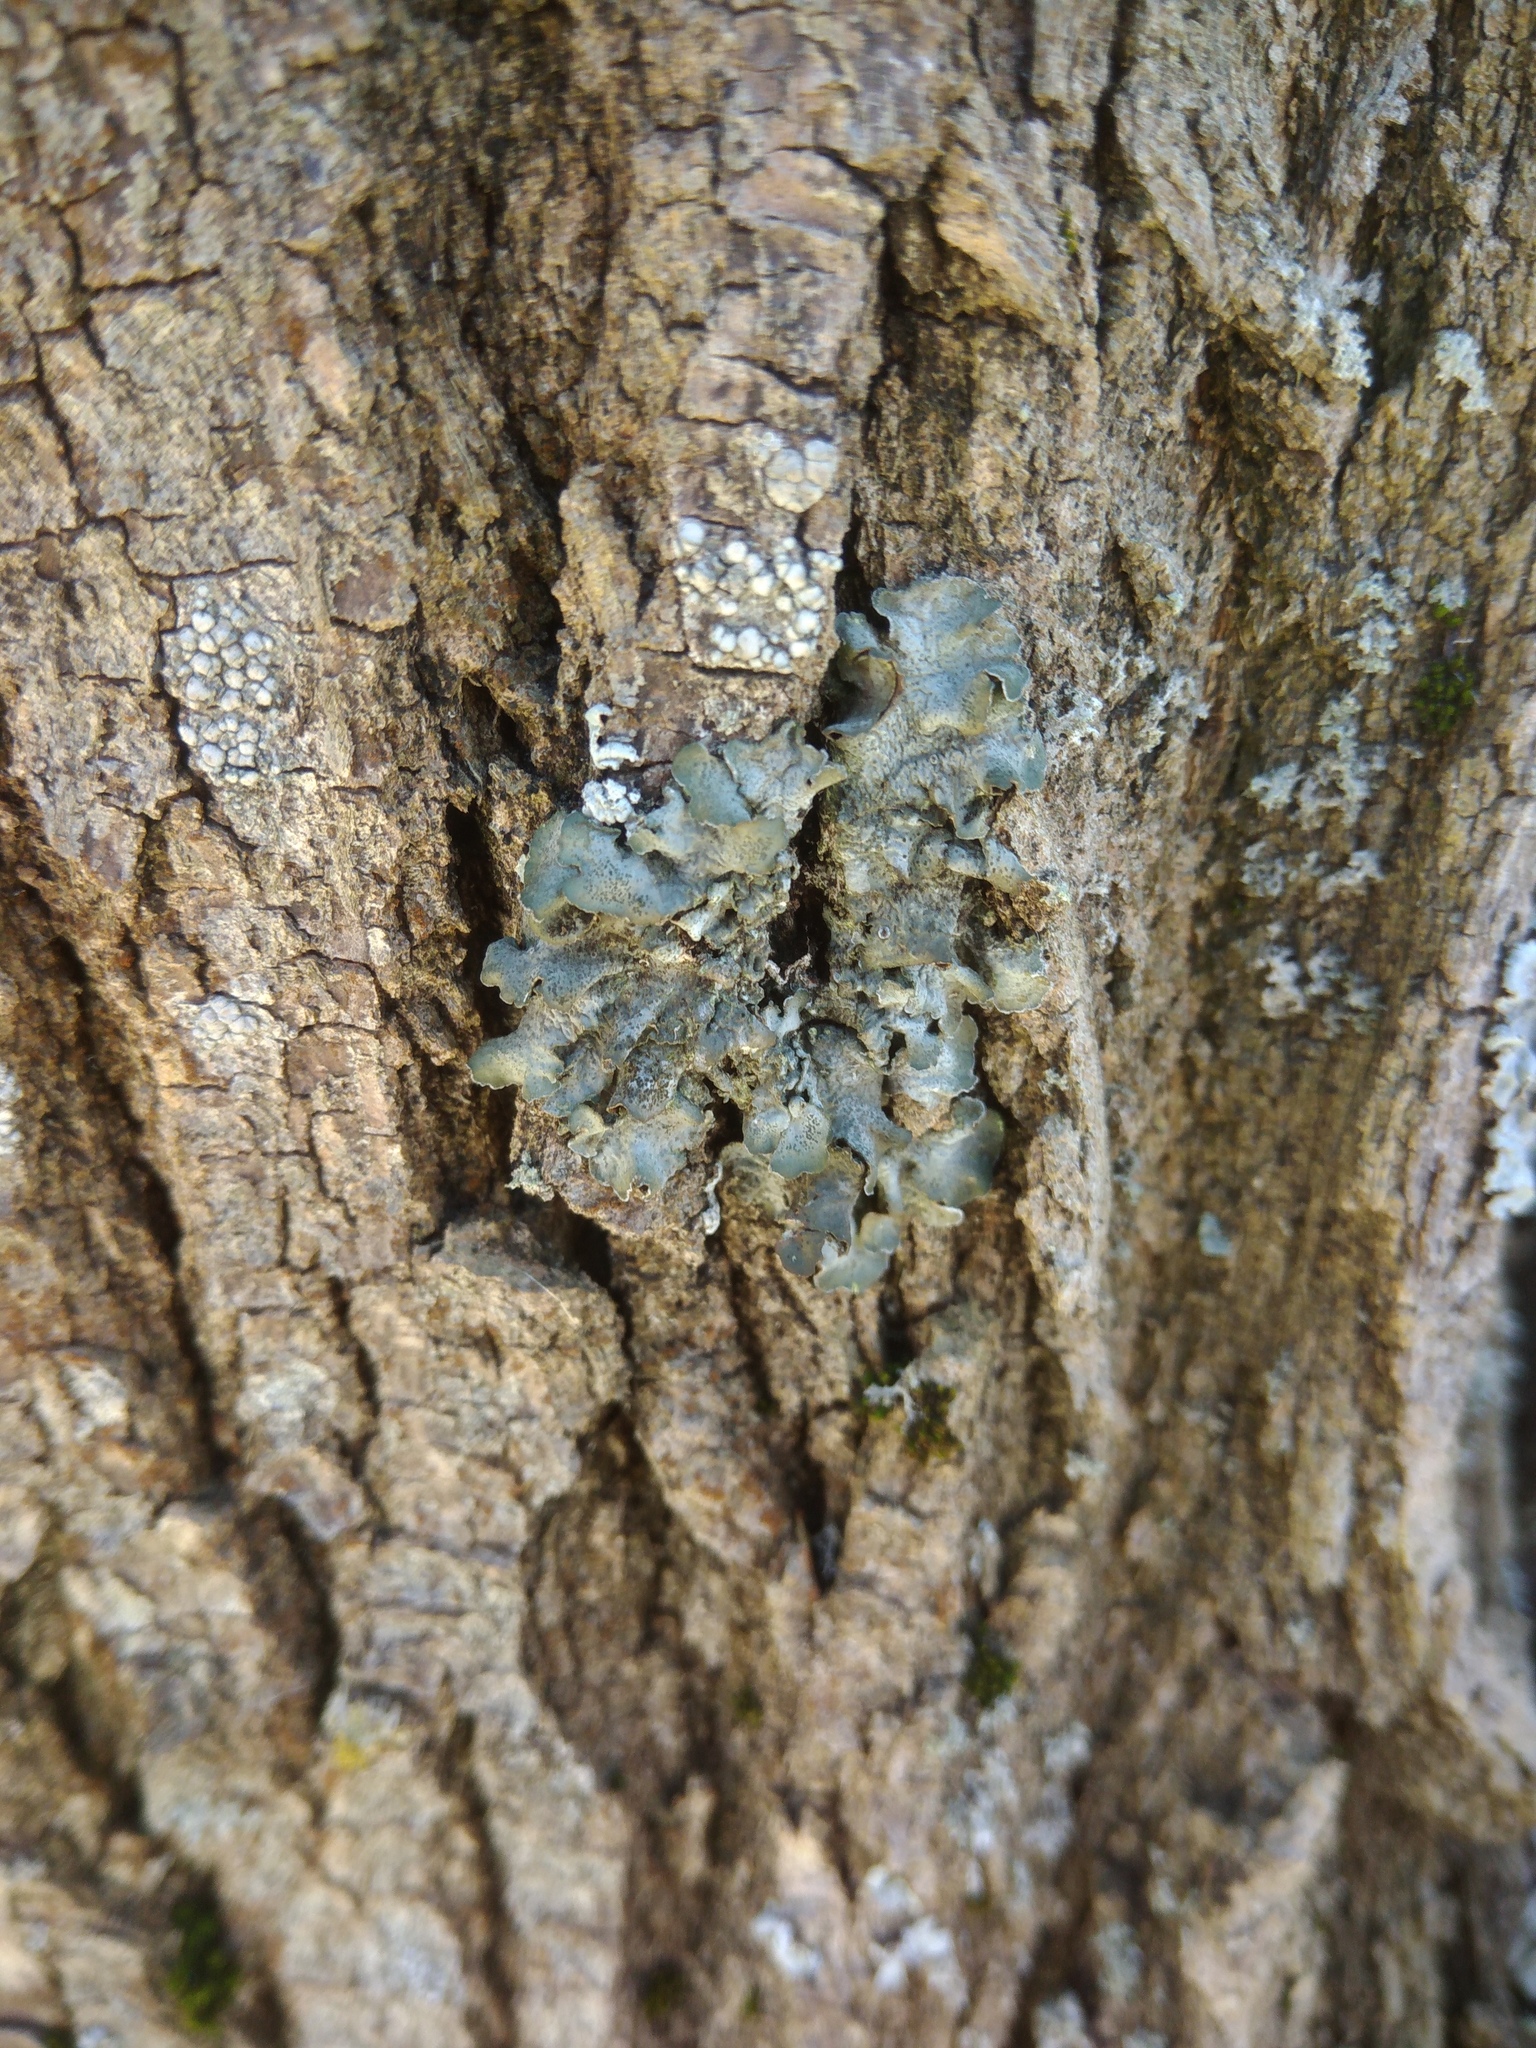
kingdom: Fungi
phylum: Ascomycota
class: Lecanoromycetes
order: Lecanorales
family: Parmeliaceae
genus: Pleurosticta
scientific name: Pleurosticta acetabulum
